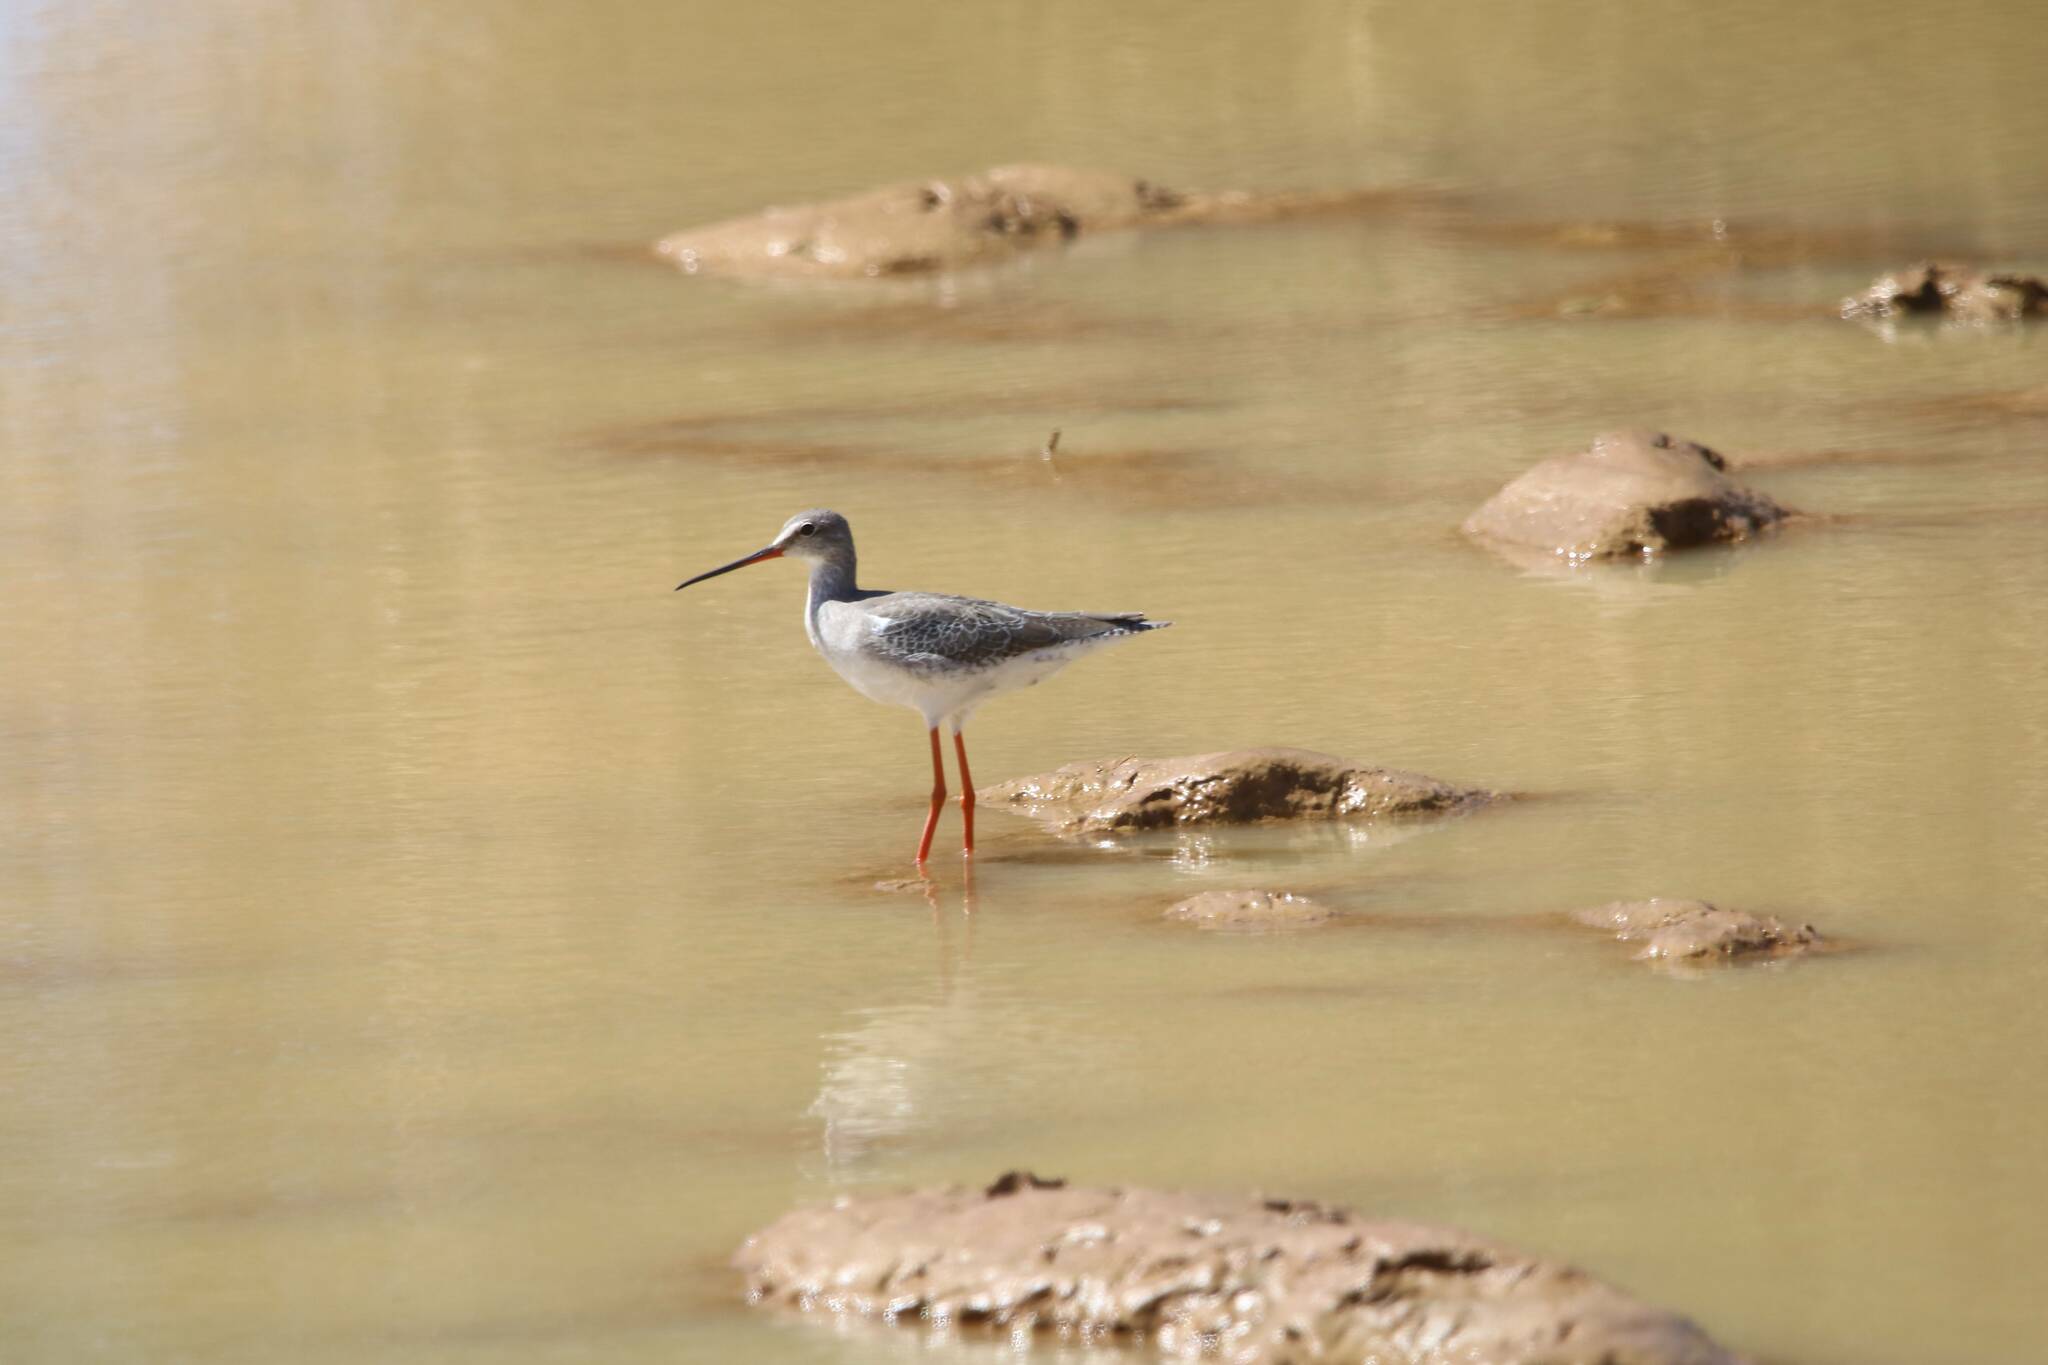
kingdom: Animalia
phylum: Chordata
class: Aves
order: Charadriiformes
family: Scolopacidae
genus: Tringa
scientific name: Tringa erythropus
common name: Spotted redshank
